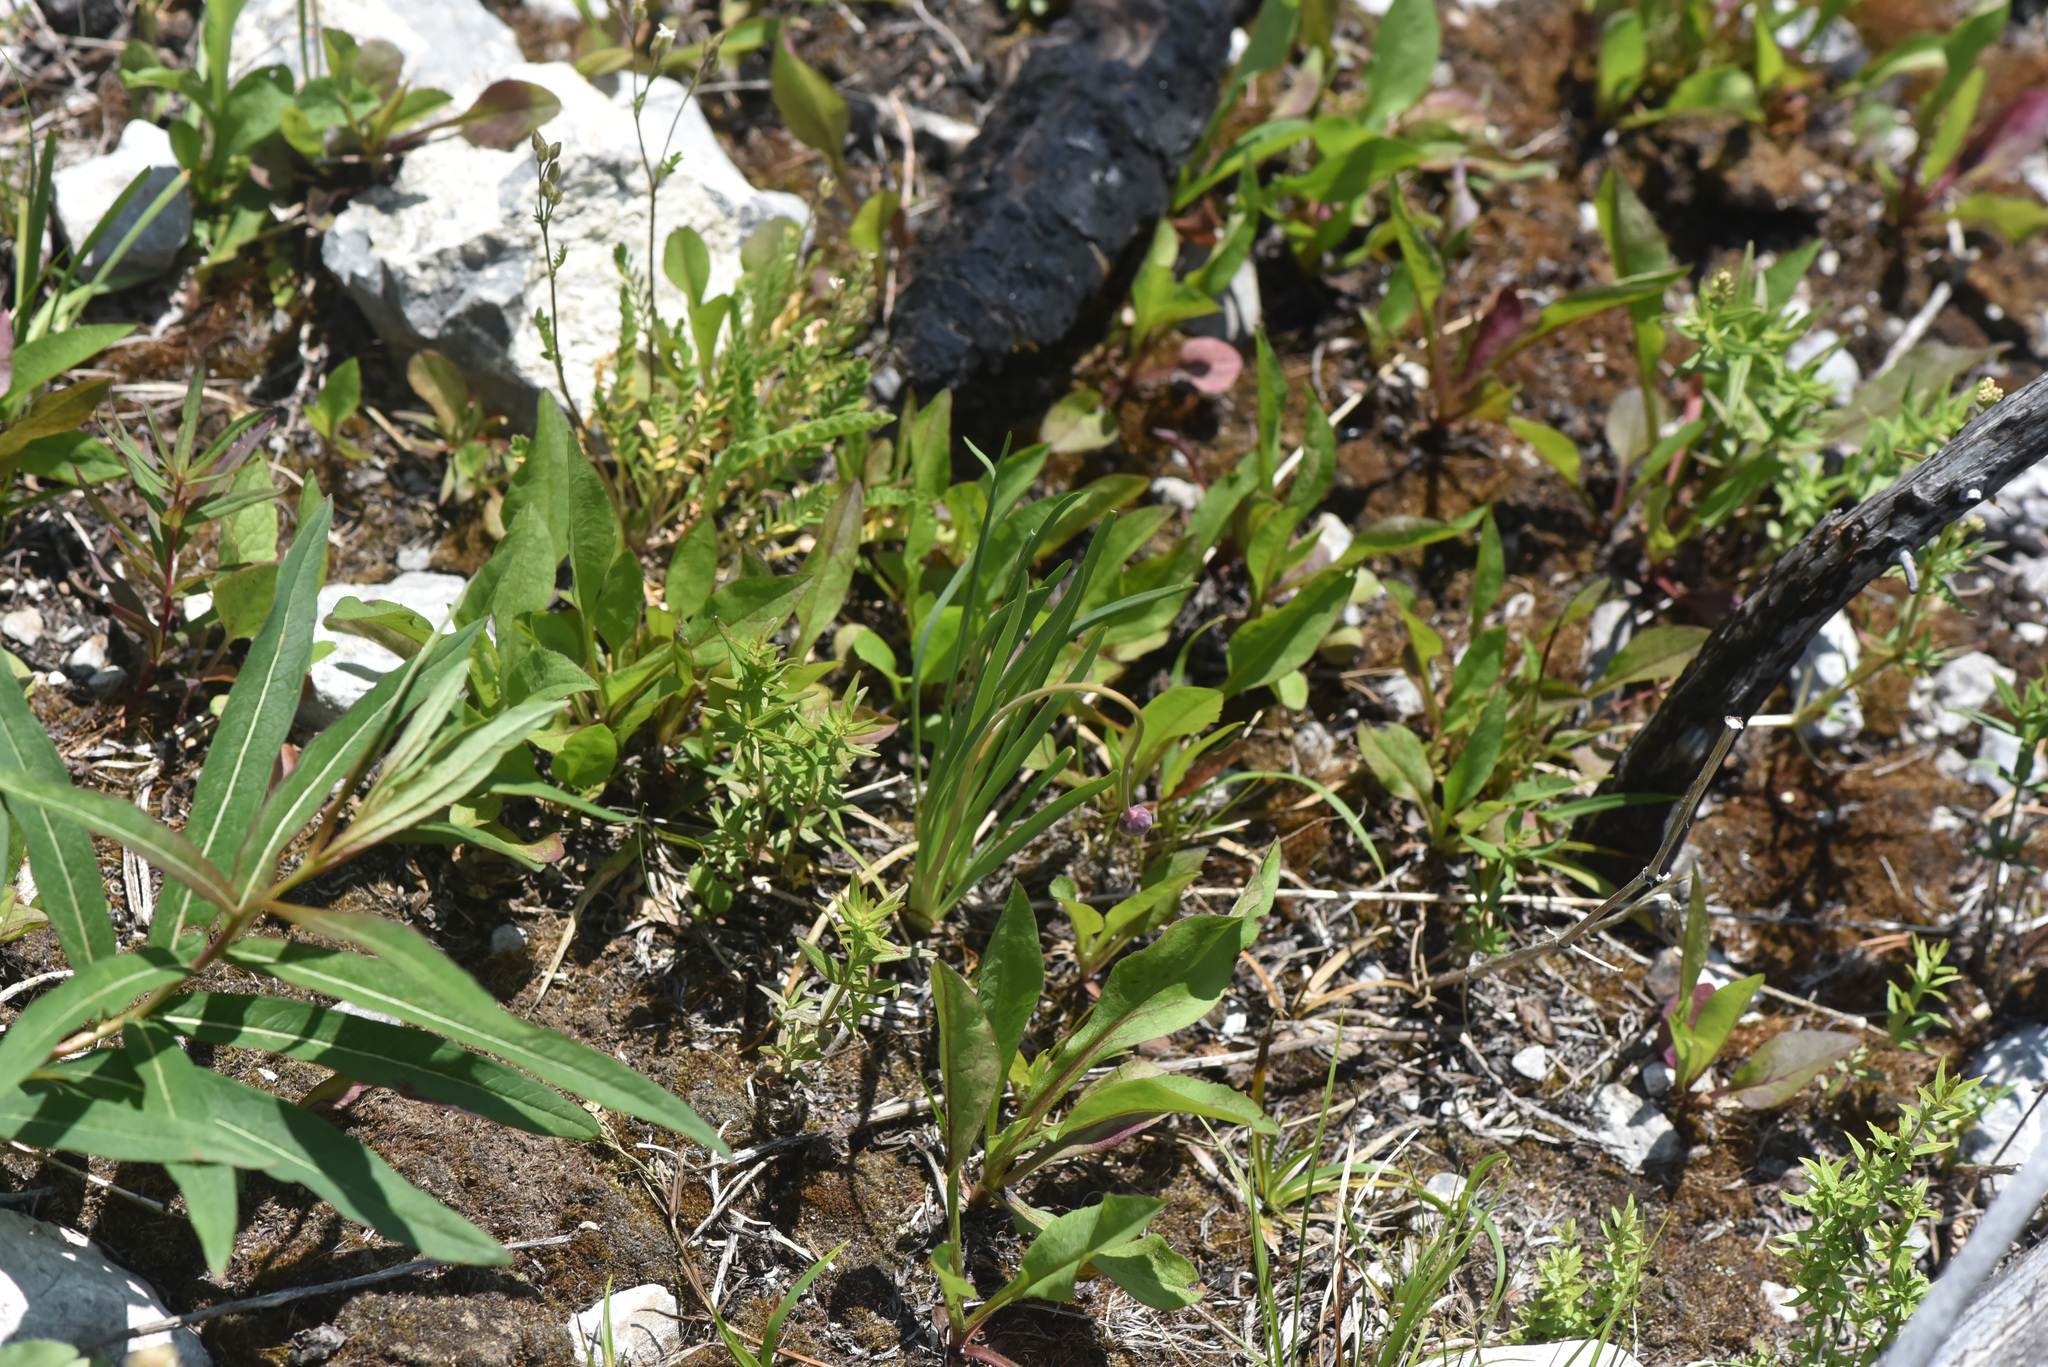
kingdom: Plantae
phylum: Tracheophyta
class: Magnoliopsida
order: Myrtales
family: Onagraceae
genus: Chamaenerion
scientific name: Chamaenerion angustifolium
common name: Fireweed
